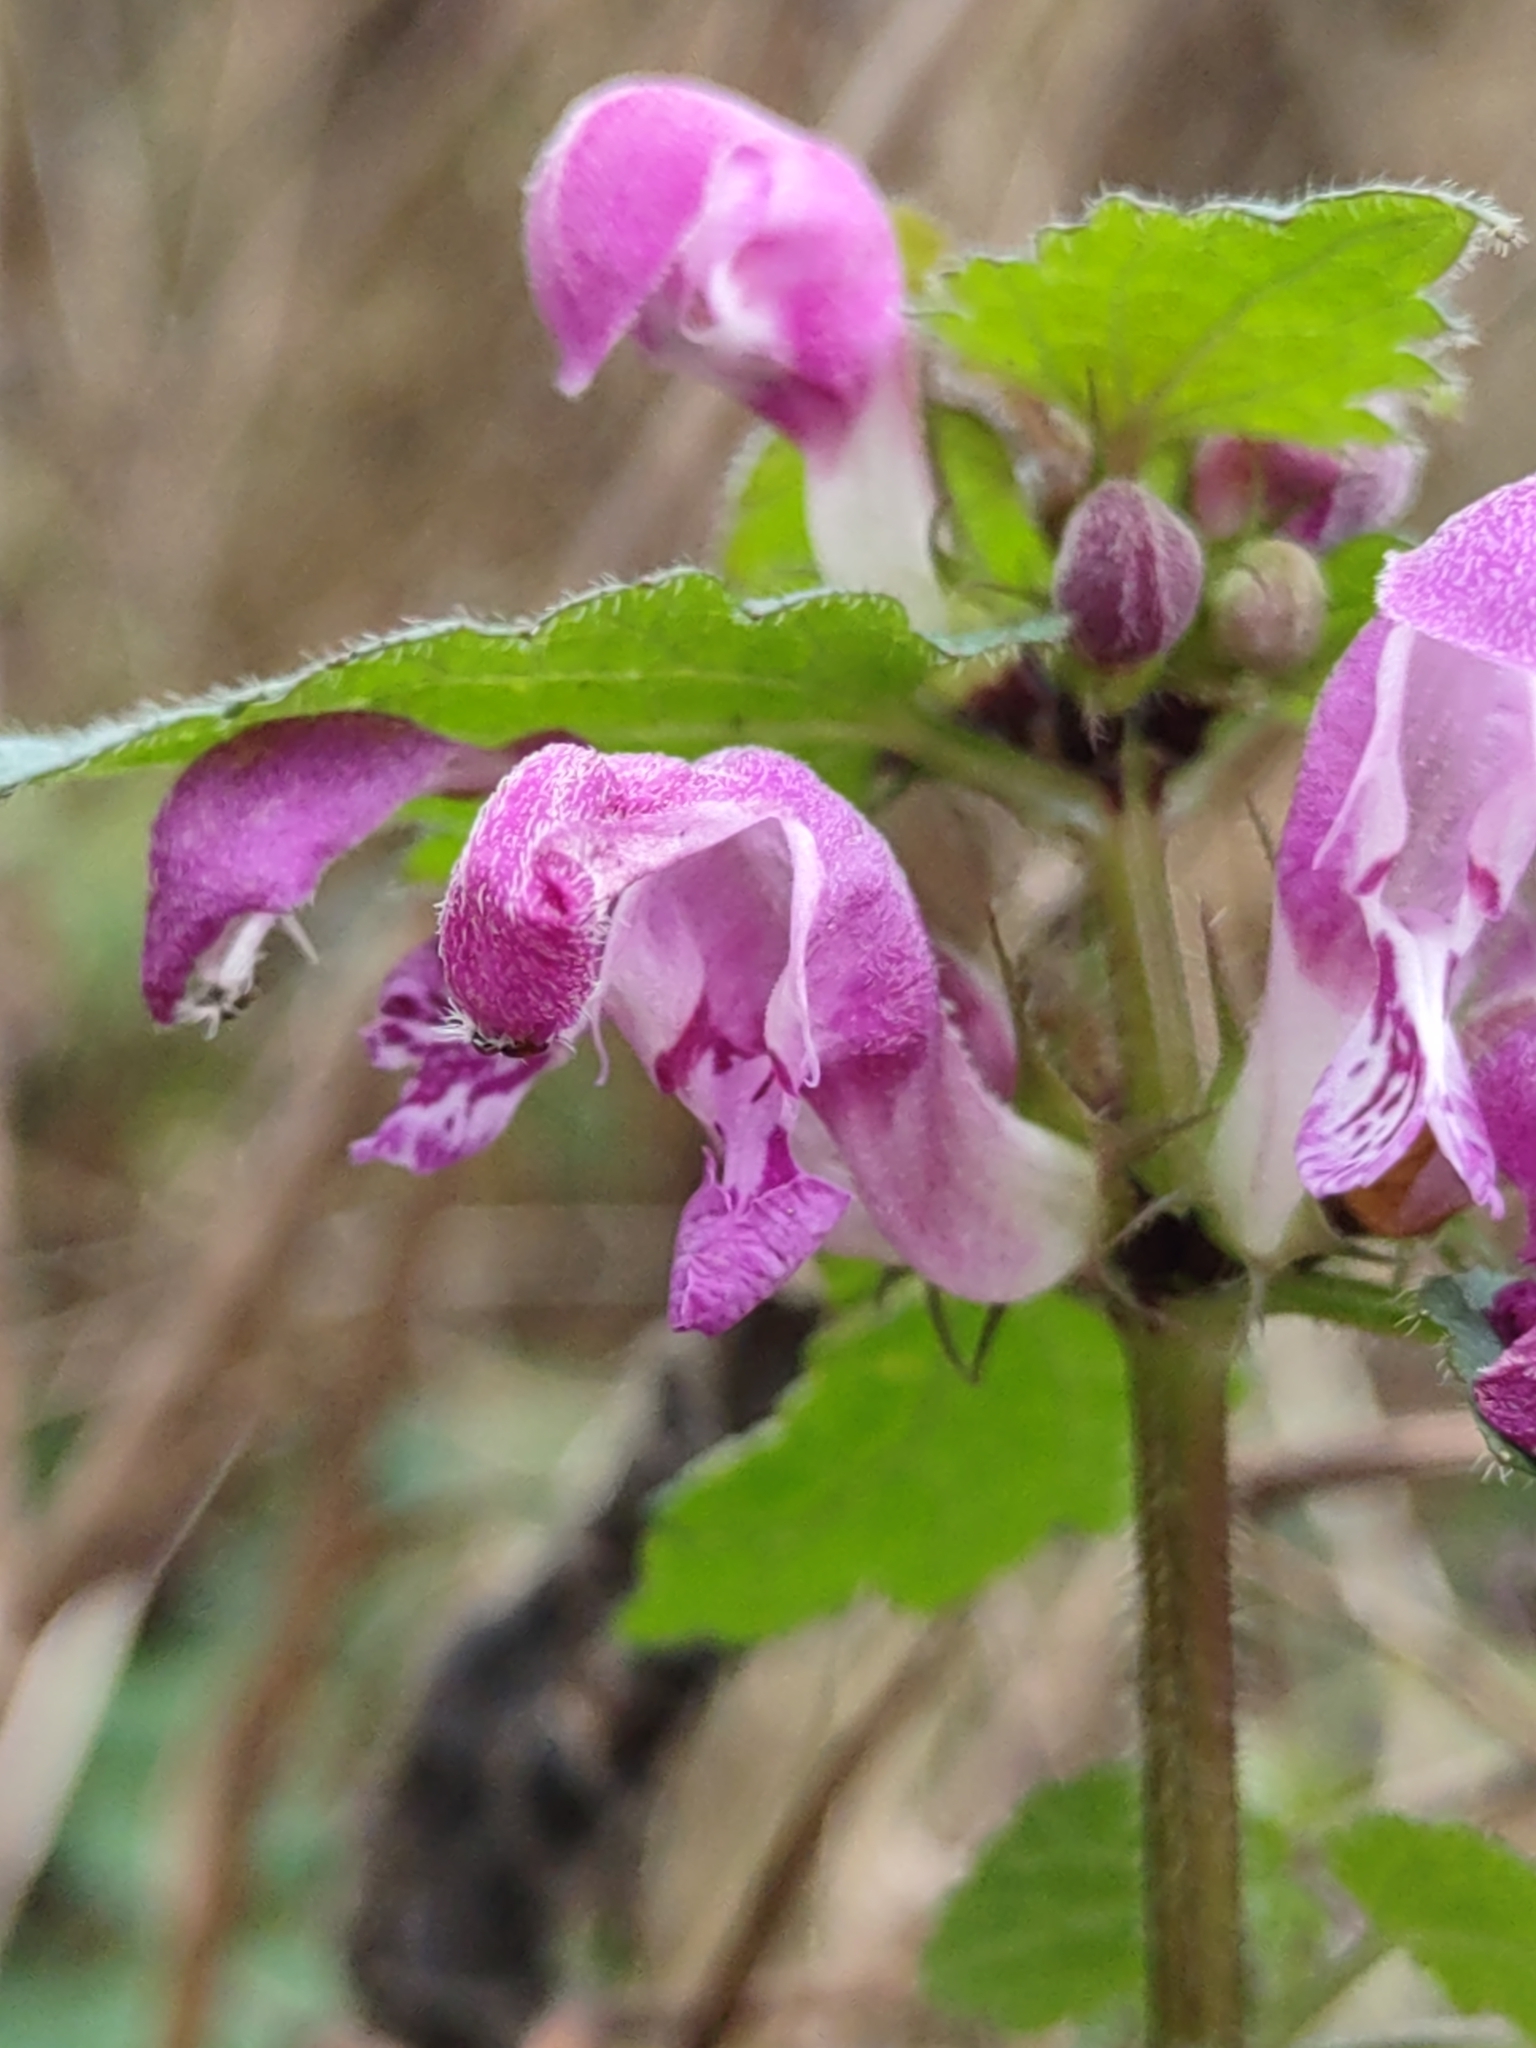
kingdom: Plantae
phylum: Tracheophyta
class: Magnoliopsida
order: Lamiales
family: Lamiaceae
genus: Lamium
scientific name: Lamium maculatum
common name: Spotted dead-nettle
